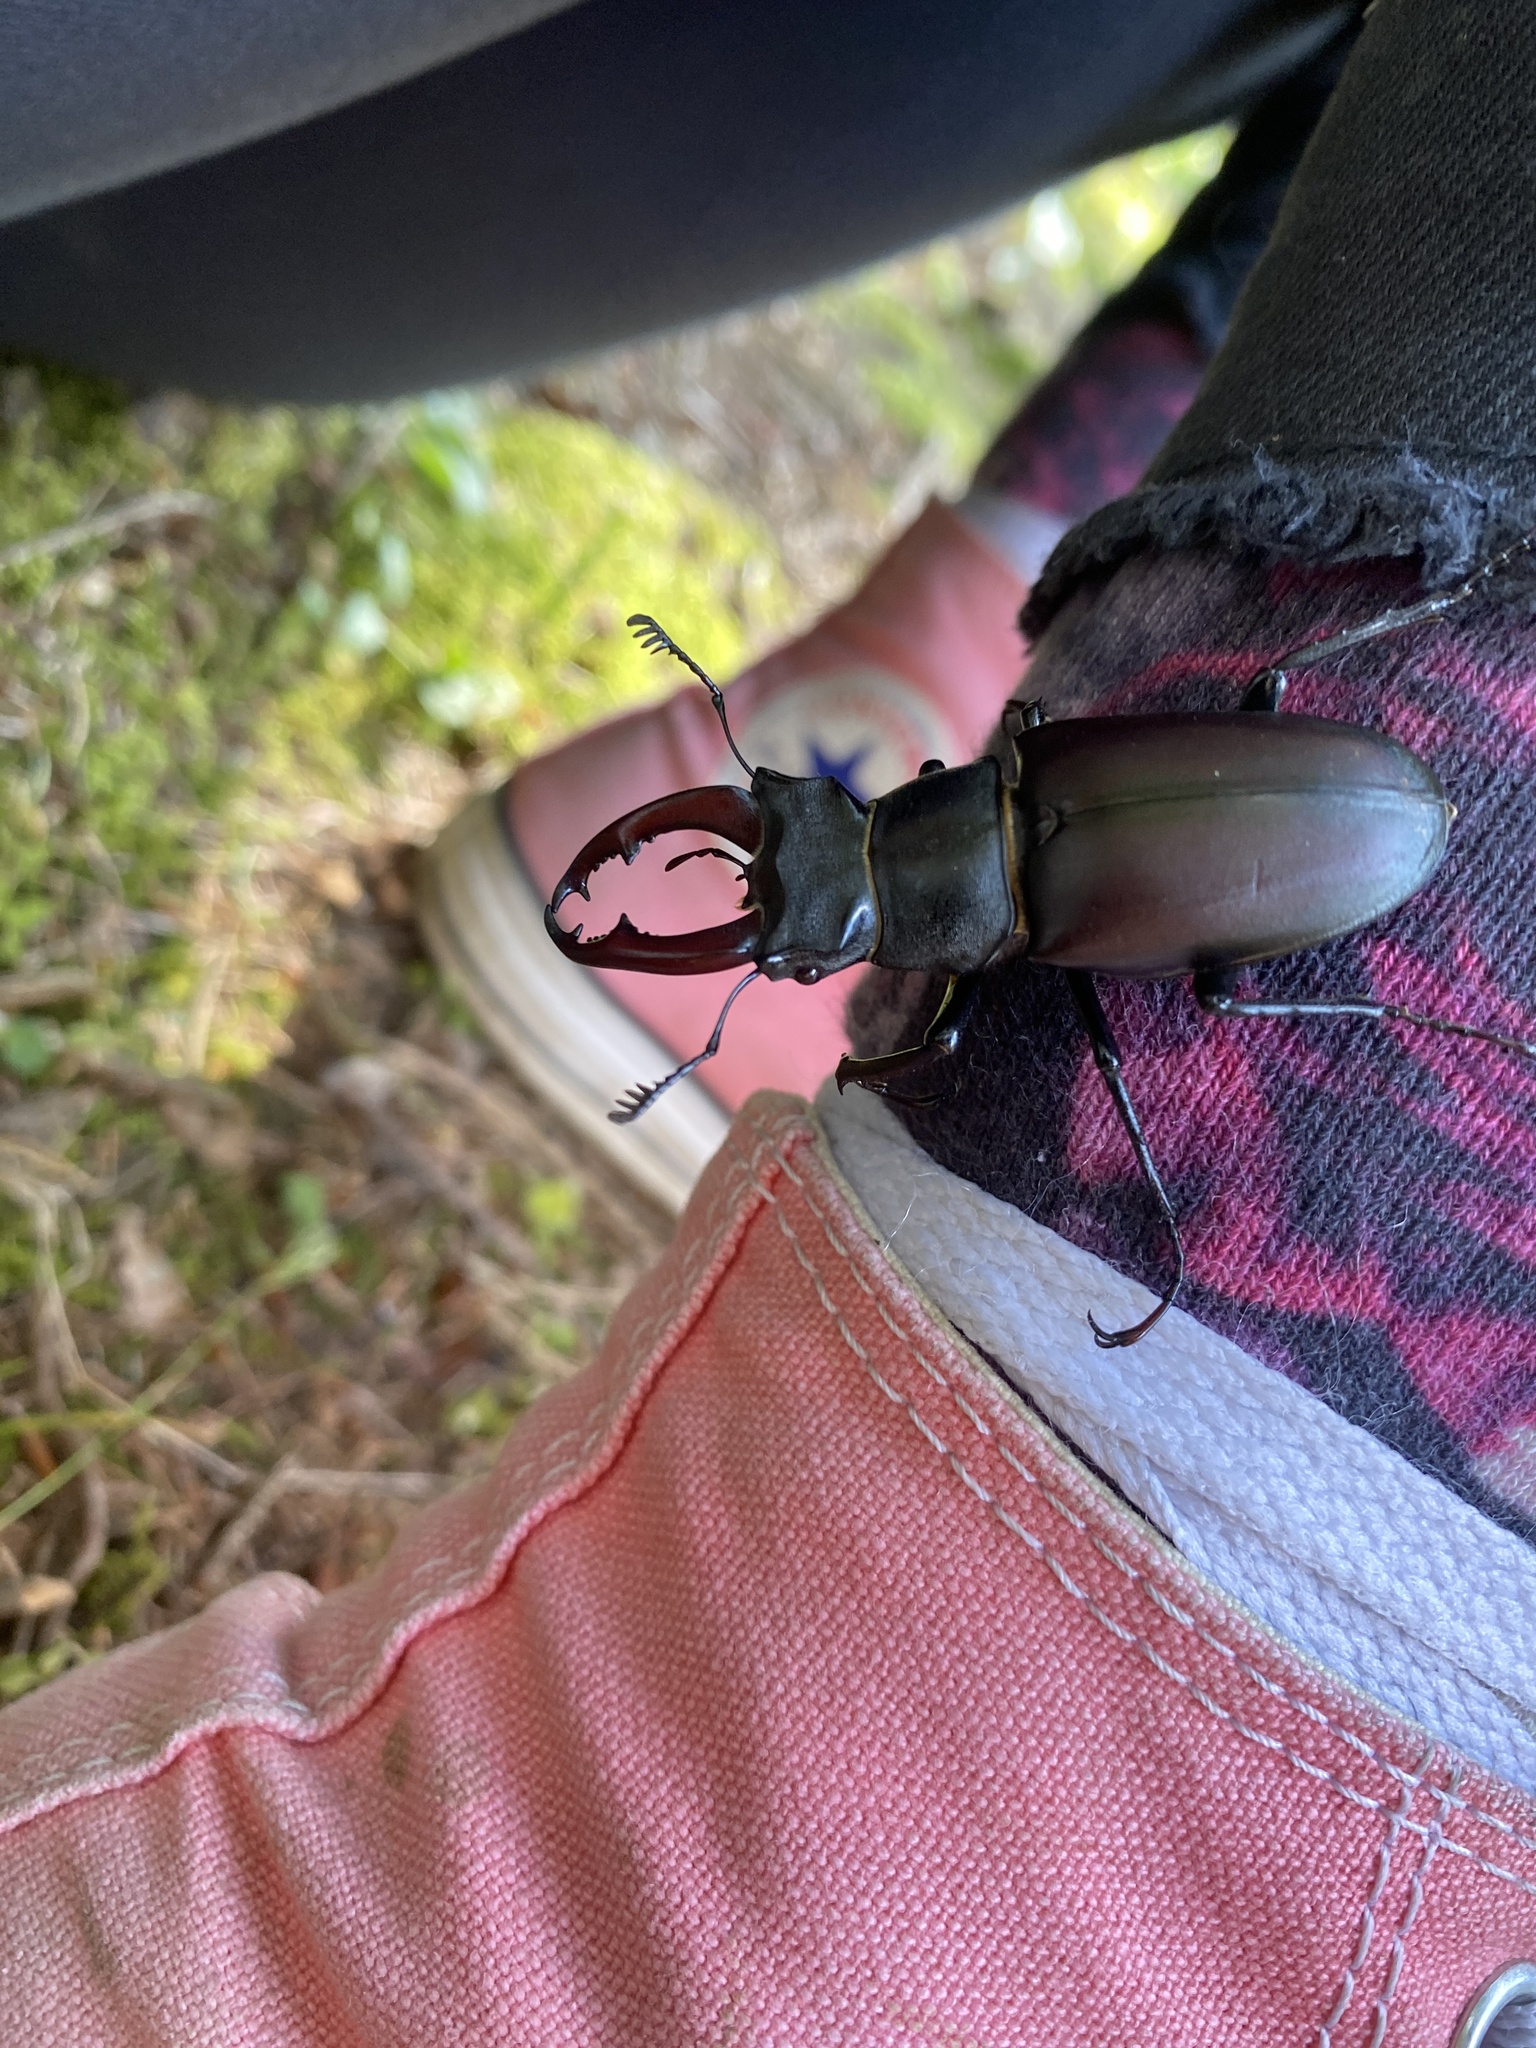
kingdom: Animalia
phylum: Arthropoda
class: Insecta
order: Coleoptera
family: Lucanidae
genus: Lucanus
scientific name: Lucanus cervus
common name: Stag beetle
